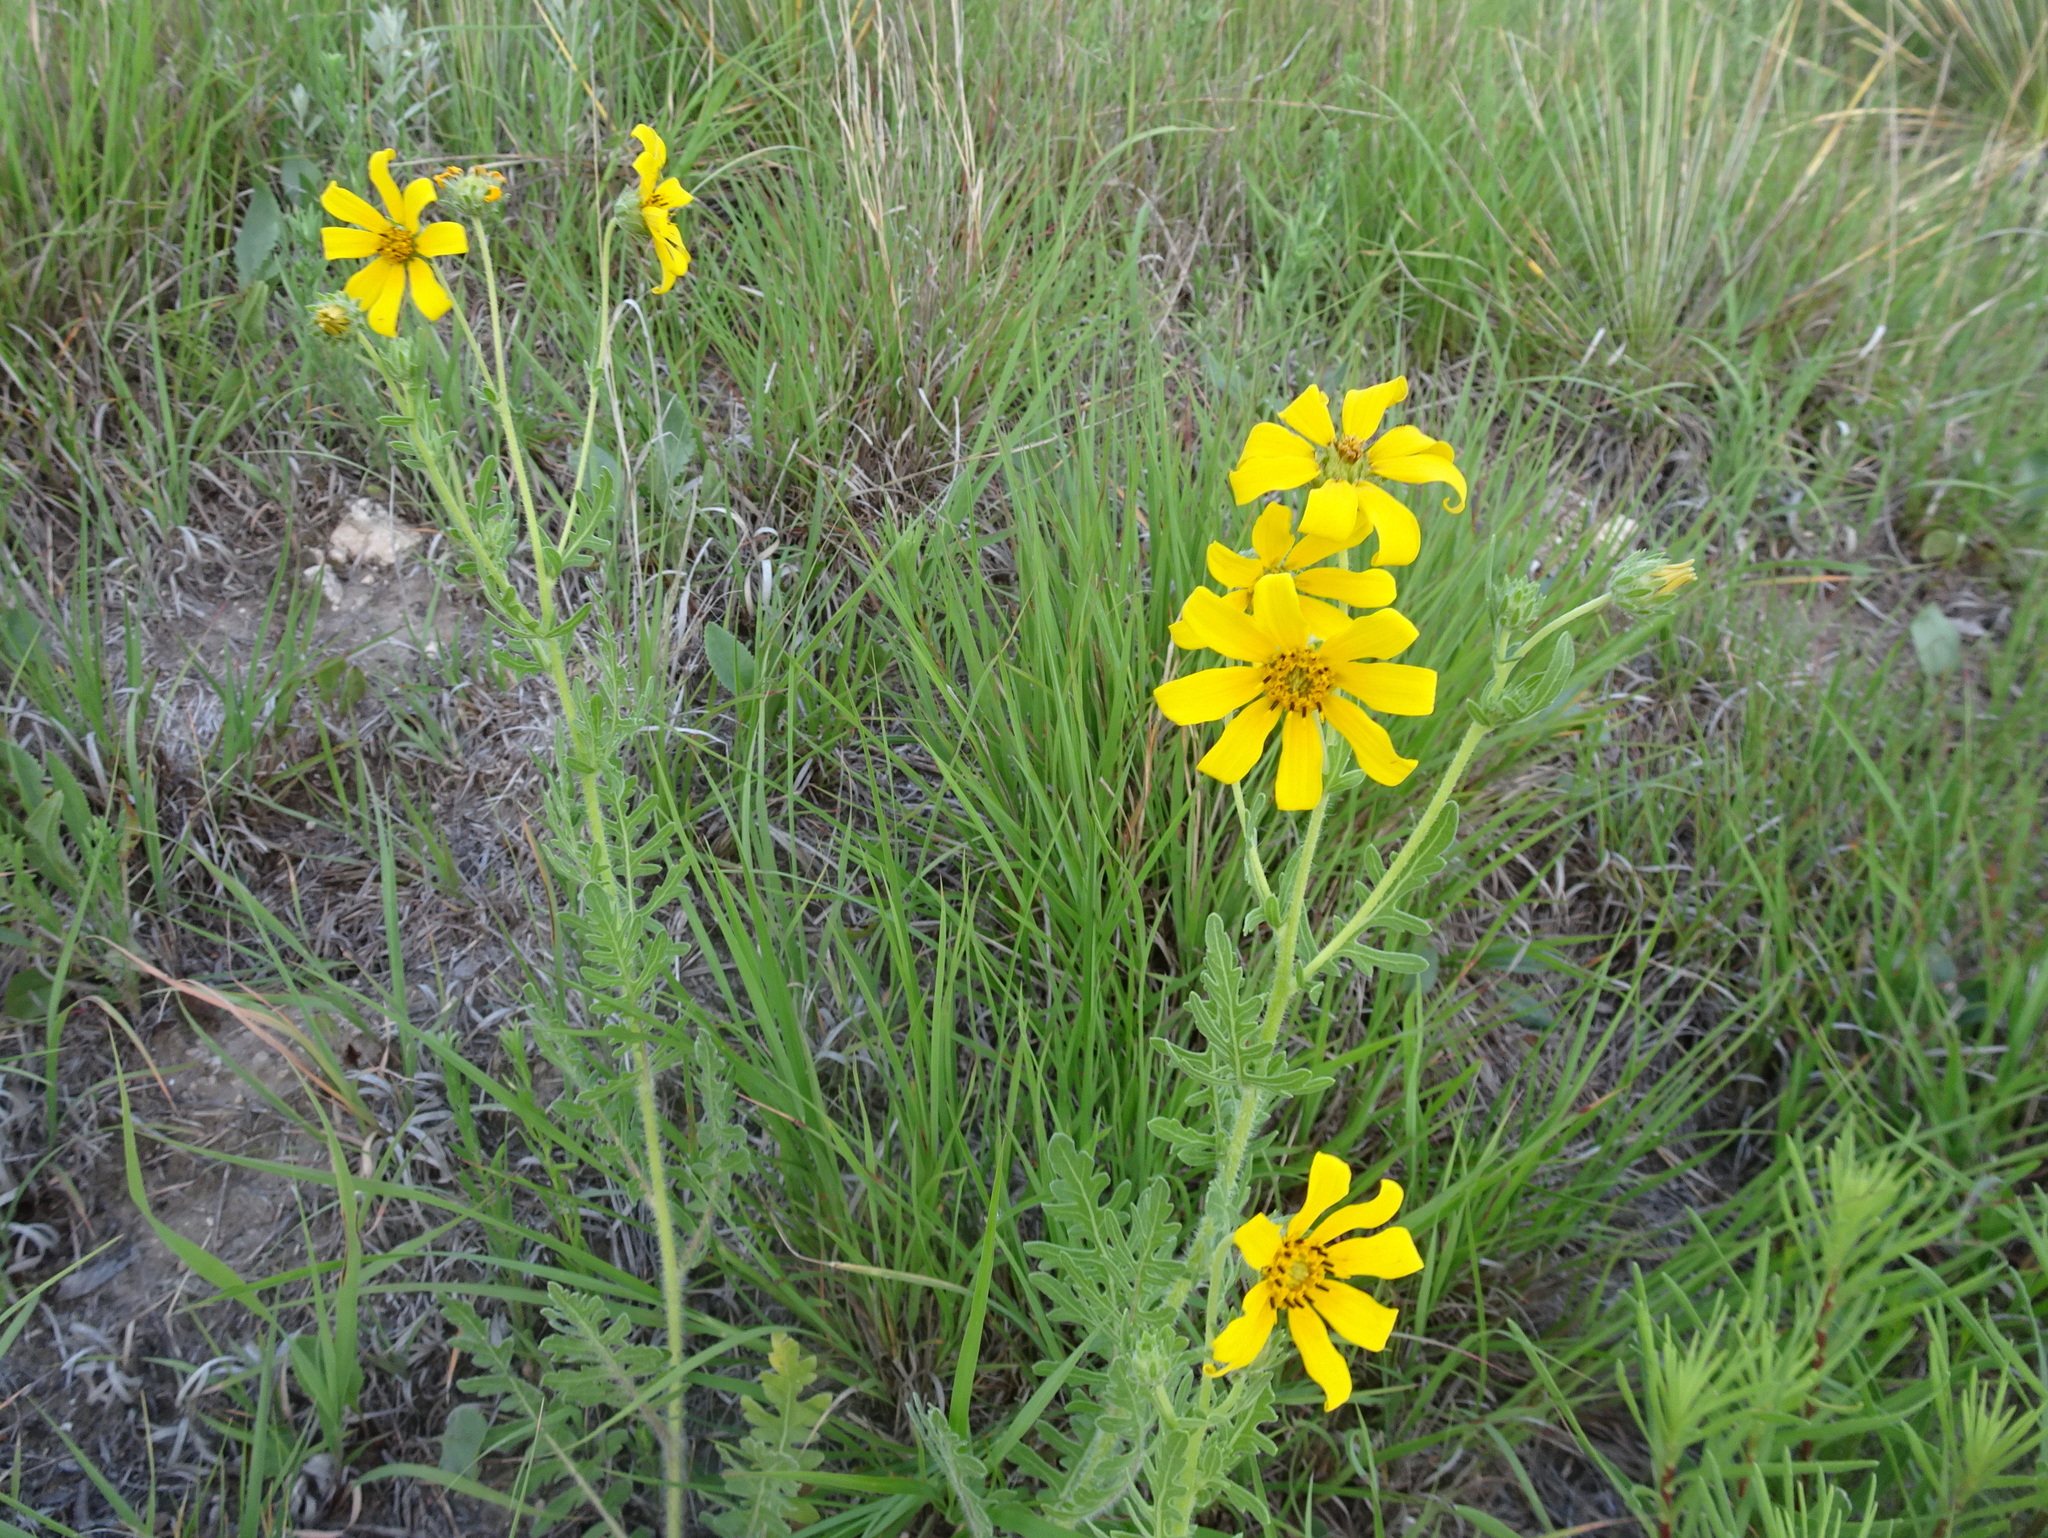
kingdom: Plantae
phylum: Tracheophyta
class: Magnoliopsida
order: Asterales
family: Asteraceae
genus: Engelmannia
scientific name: Engelmannia peristenia
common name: Engelmann's daisy
